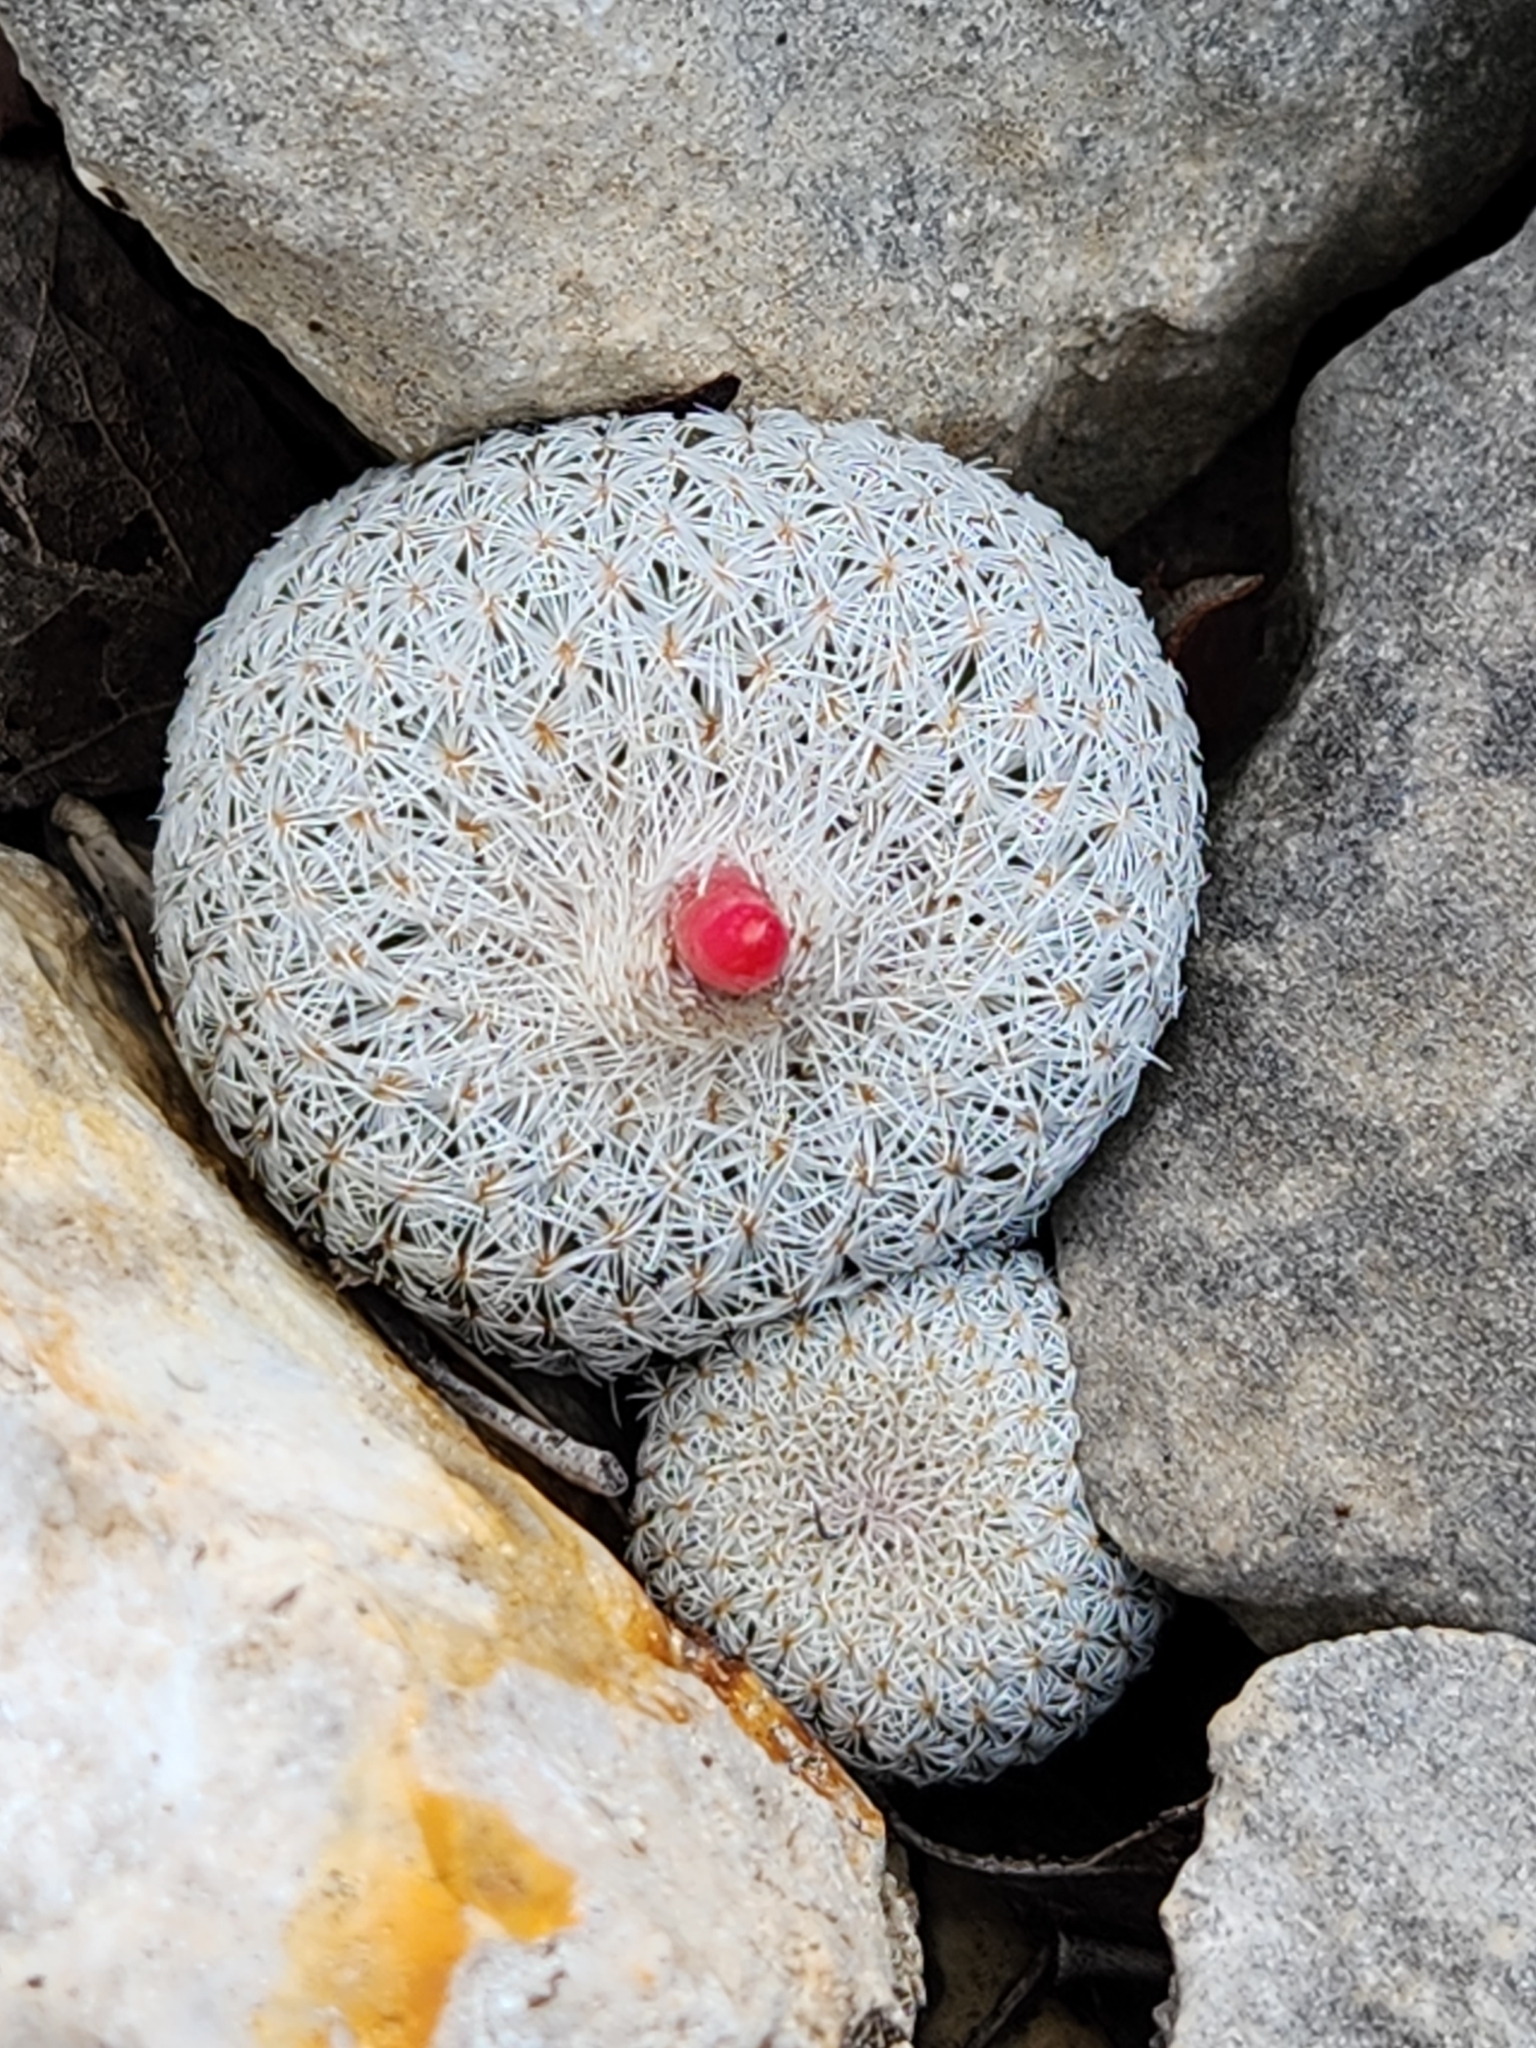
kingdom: Plantae
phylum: Tracheophyta
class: Magnoliopsida
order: Caryophyllales
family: Cactaceae
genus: Epithelantha
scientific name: Epithelantha micromeris
